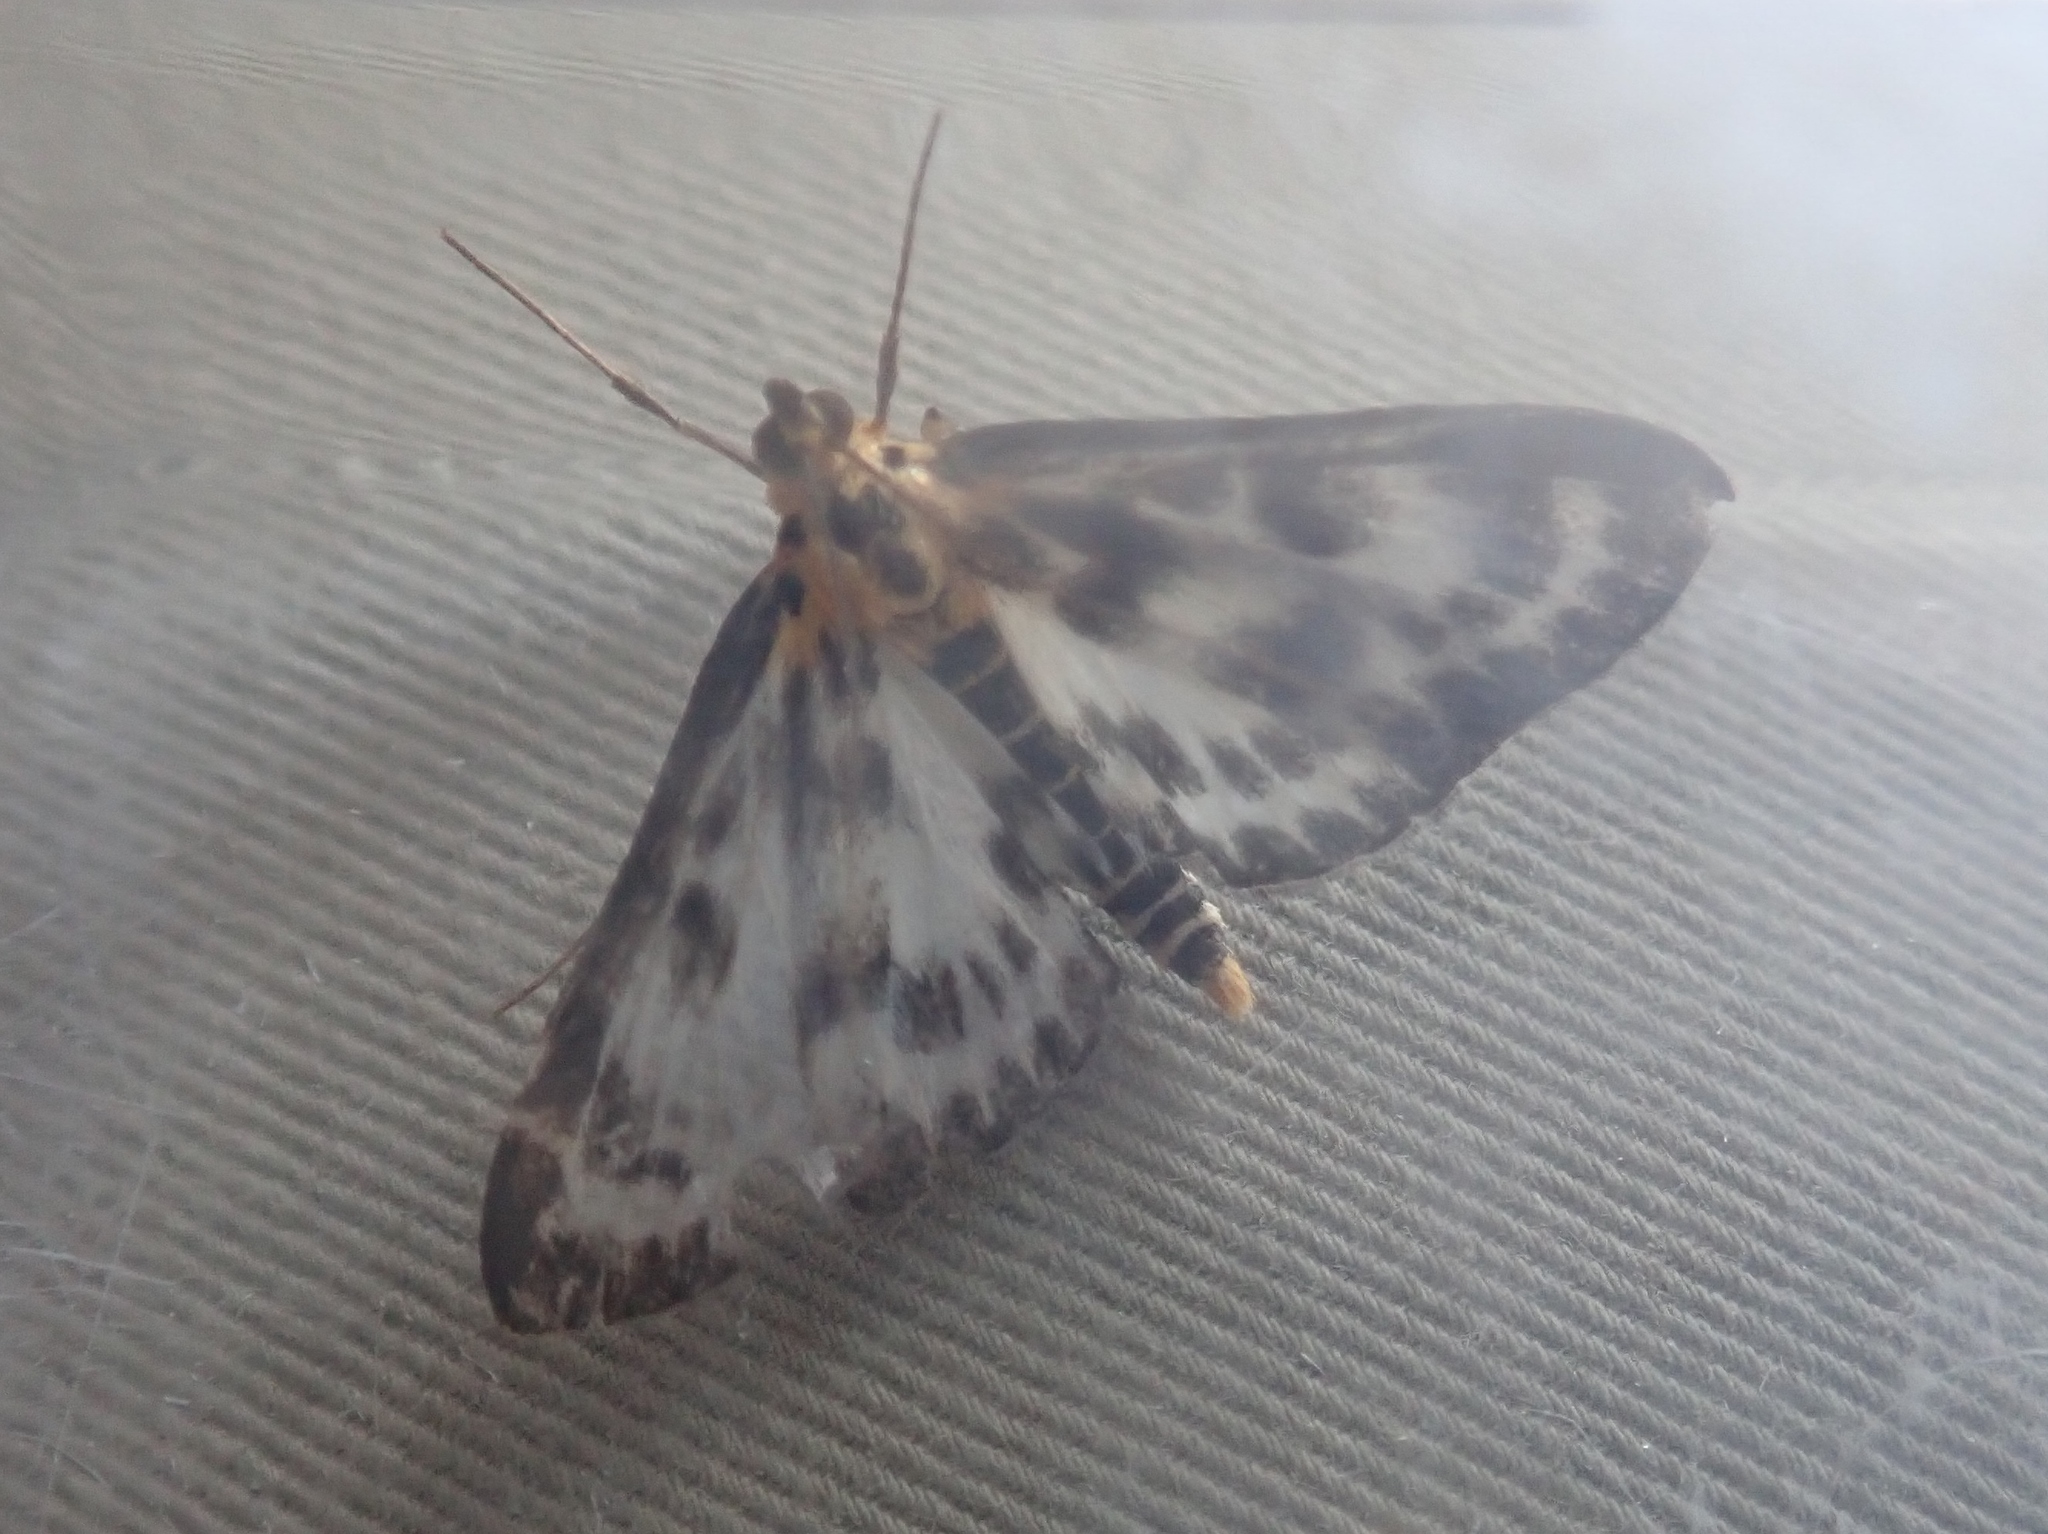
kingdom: Animalia
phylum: Arthropoda
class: Insecta
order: Lepidoptera
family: Crambidae
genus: Anania
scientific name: Anania hortulata
